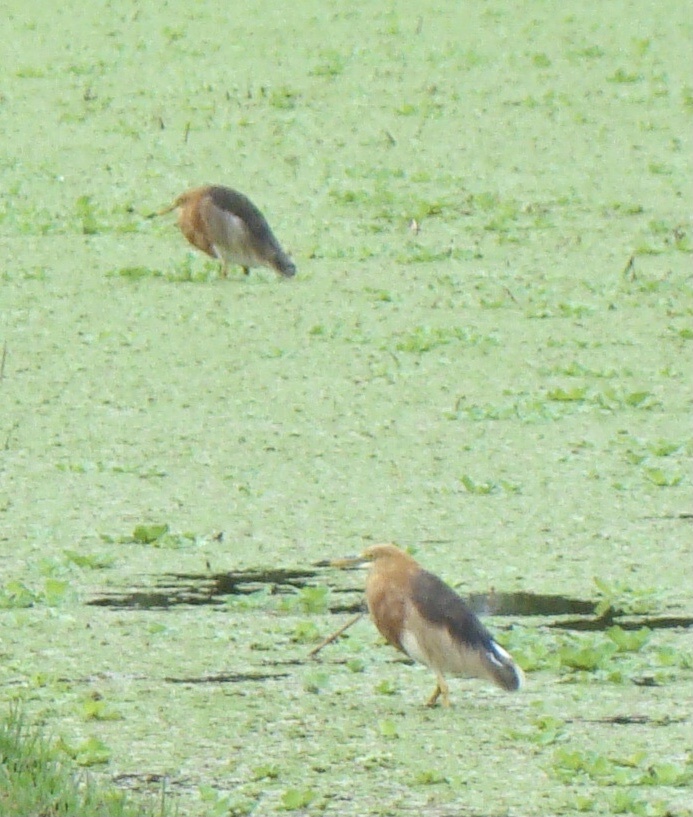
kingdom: Animalia
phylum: Chordata
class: Aves
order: Pelecaniformes
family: Ardeidae
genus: Ardeola
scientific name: Ardeola speciosa
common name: Javan pond heron
